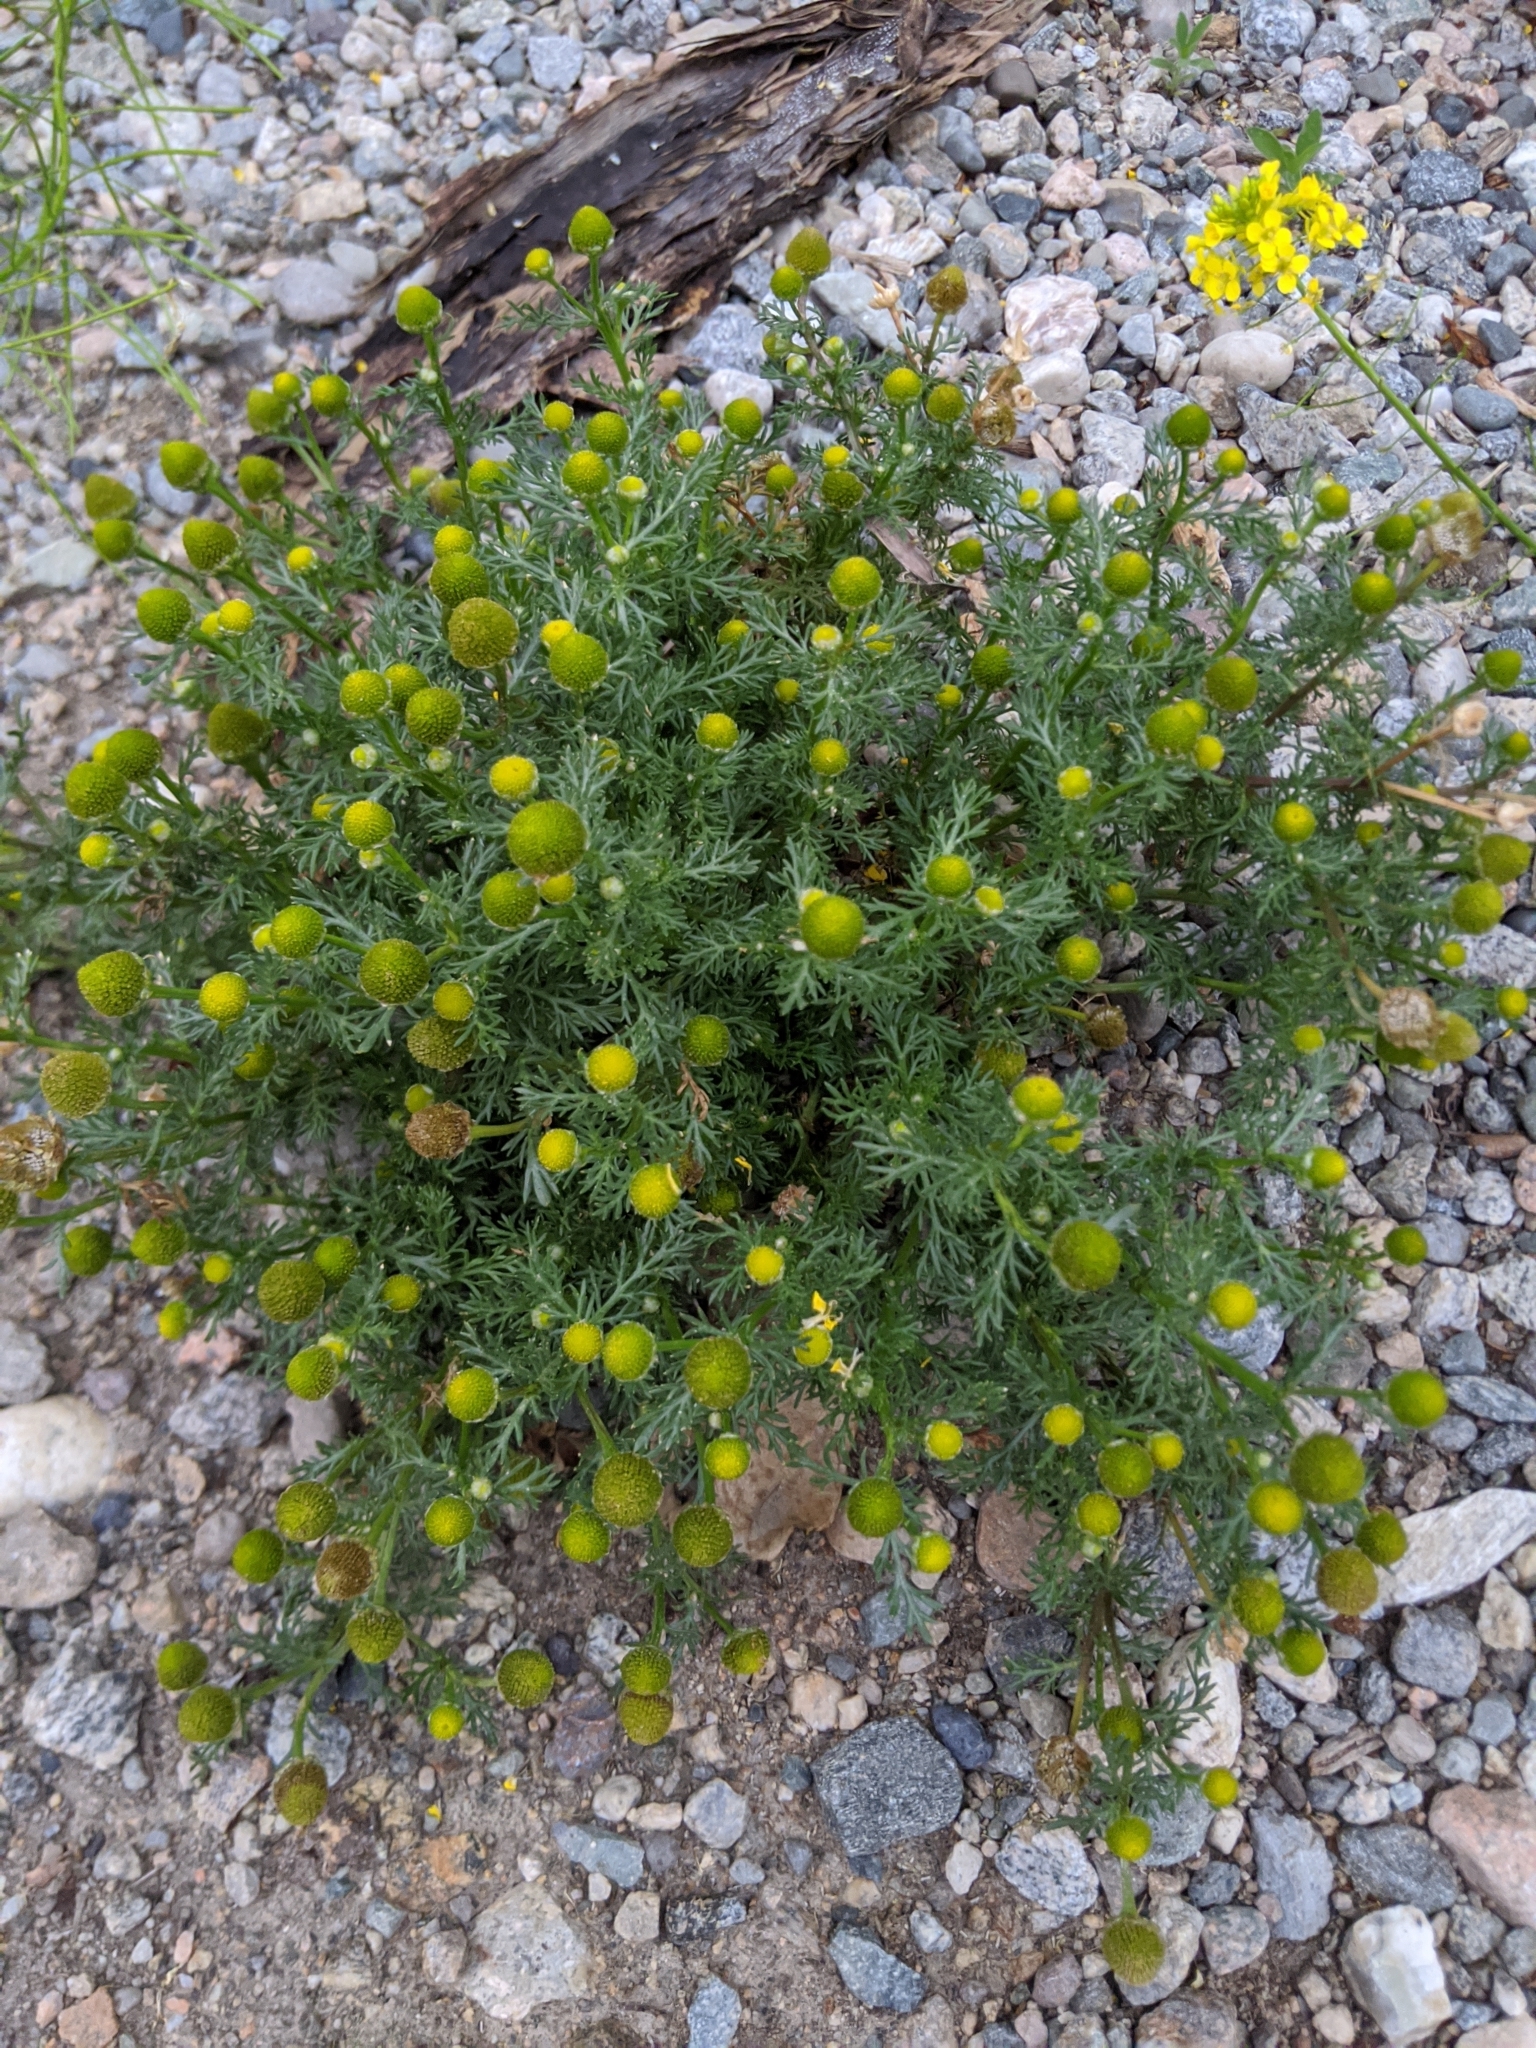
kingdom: Plantae
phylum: Tracheophyta
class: Magnoliopsida
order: Asterales
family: Asteraceae
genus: Matricaria
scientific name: Matricaria discoidea
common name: Disc mayweed
